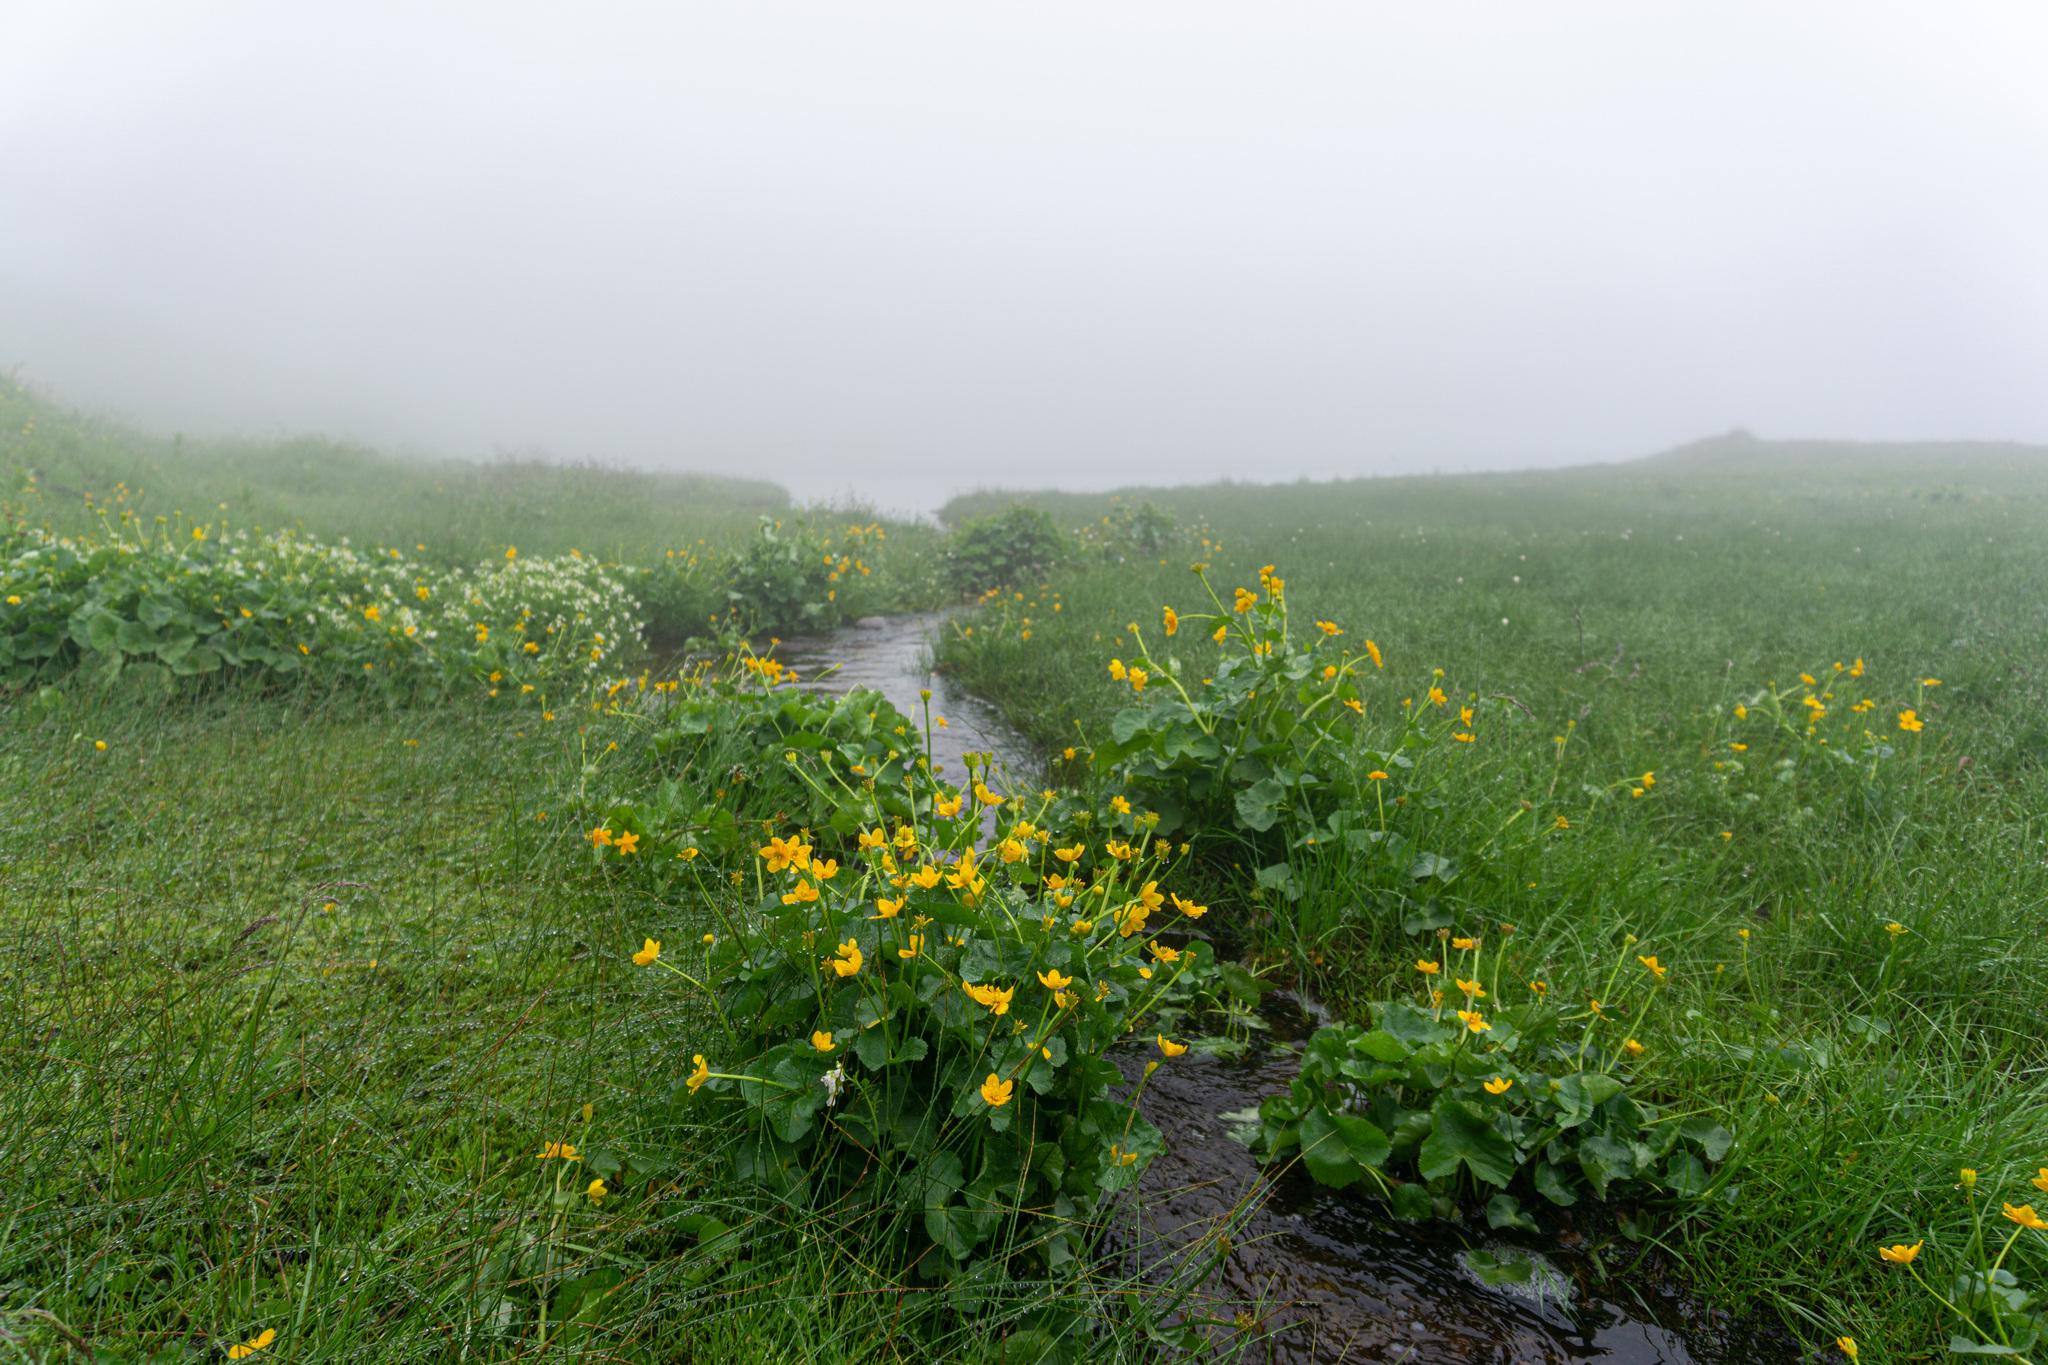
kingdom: Plantae
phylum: Tracheophyta
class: Magnoliopsida
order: Ranunculales
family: Ranunculaceae
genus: Caltha
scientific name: Caltha palustris
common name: Marsh marigold
